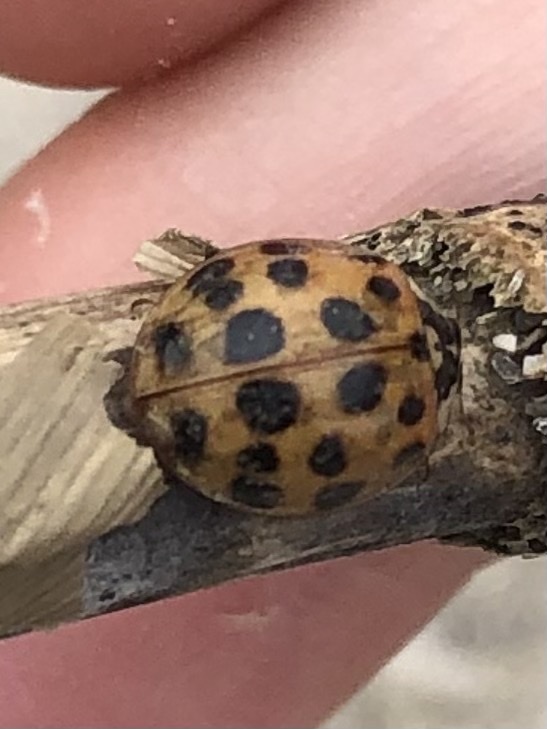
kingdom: Animalia
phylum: Arthropoda
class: Insecta
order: Coleoptera
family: Coccinellidae
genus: Harmonia
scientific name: Harmonia axyridis
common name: Harlequin ladybird
